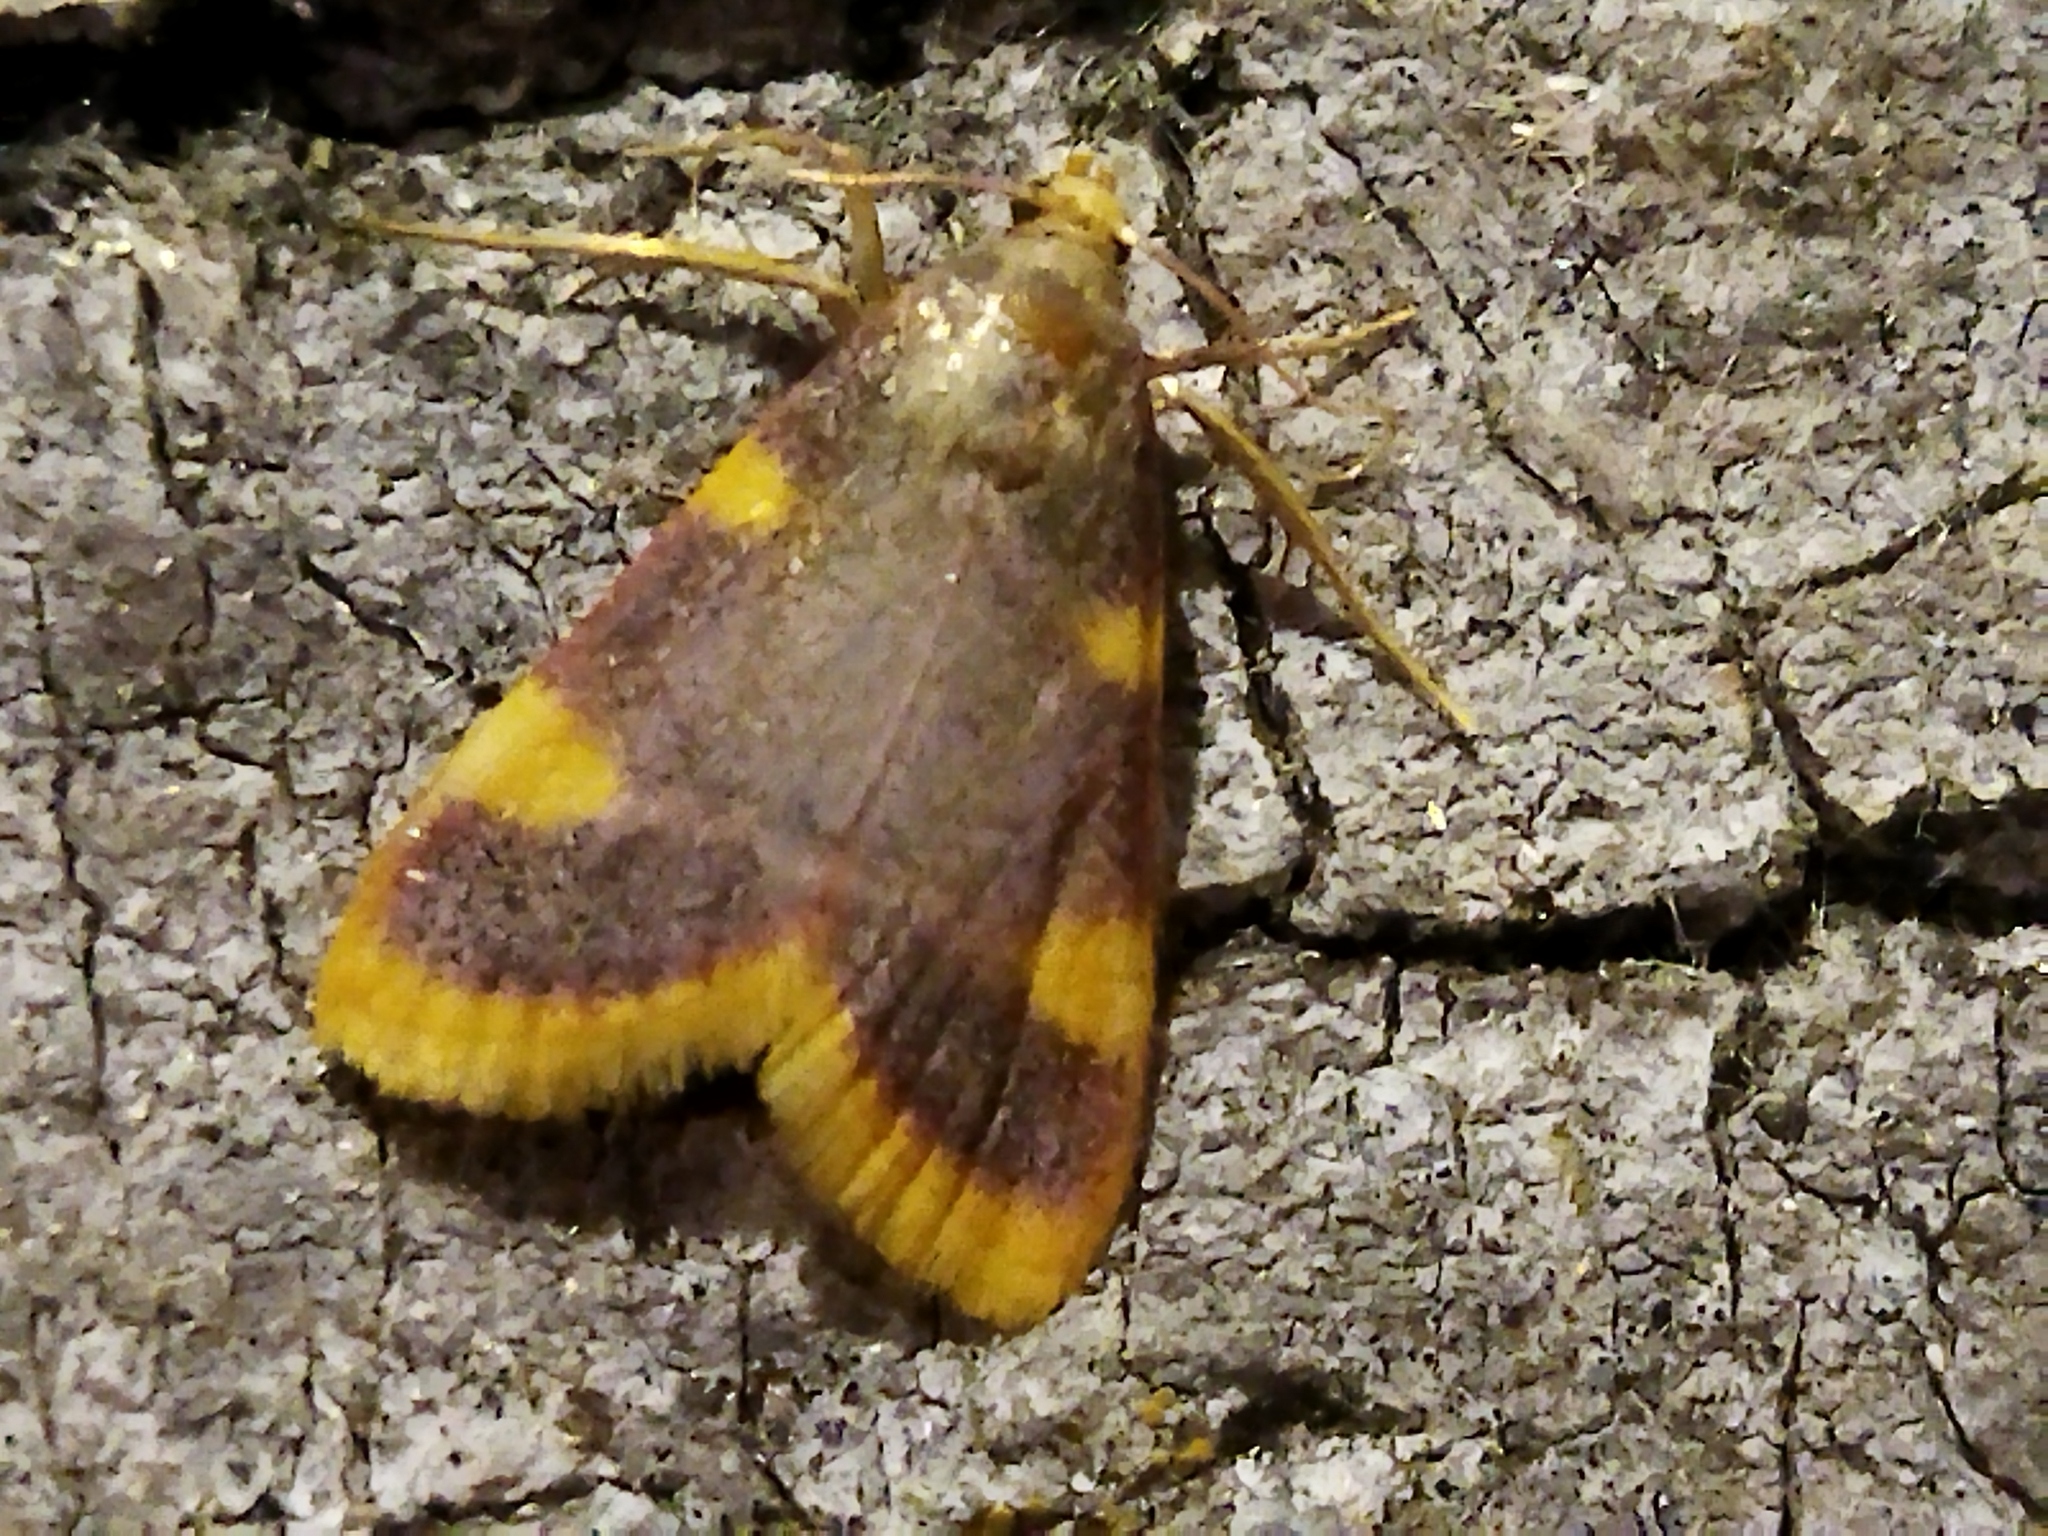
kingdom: Animalia
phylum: Arthropoda
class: Insecta
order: Lepidoptera
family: Pyralidae
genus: Hypsopygia
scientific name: Hypsopygia costalis
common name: Gold triangle
